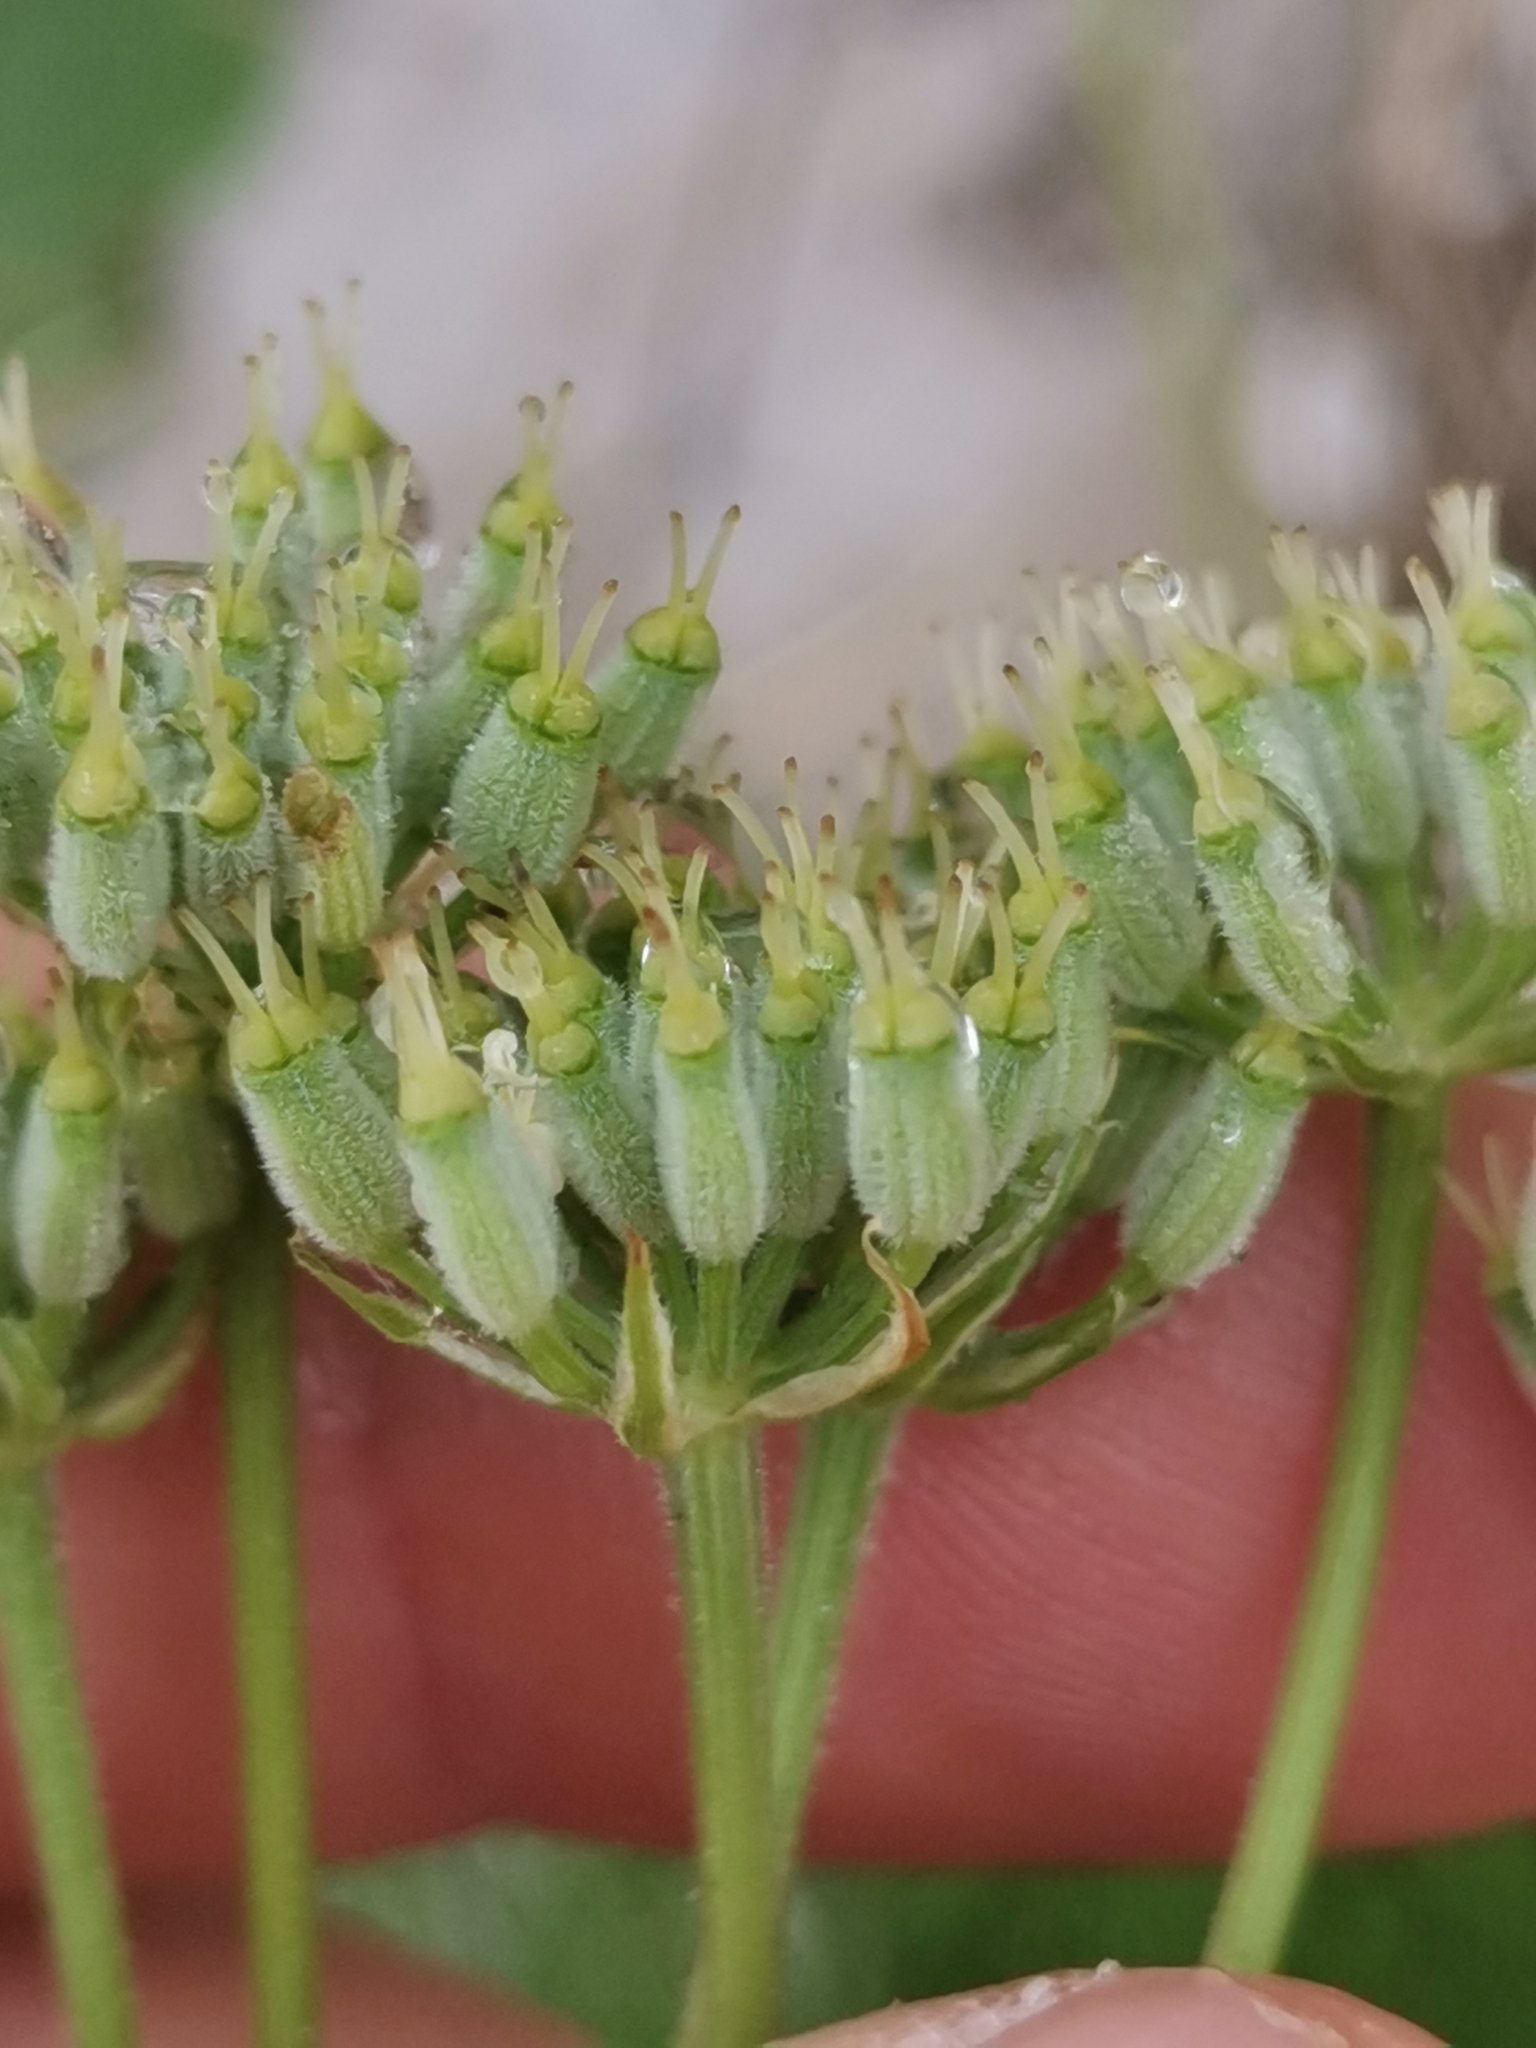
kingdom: Plantae
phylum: Tracheophyta
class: Magnoliopsida
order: Apiales
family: Apiaceae
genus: Athamanta
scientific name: Athamanta cretensis
